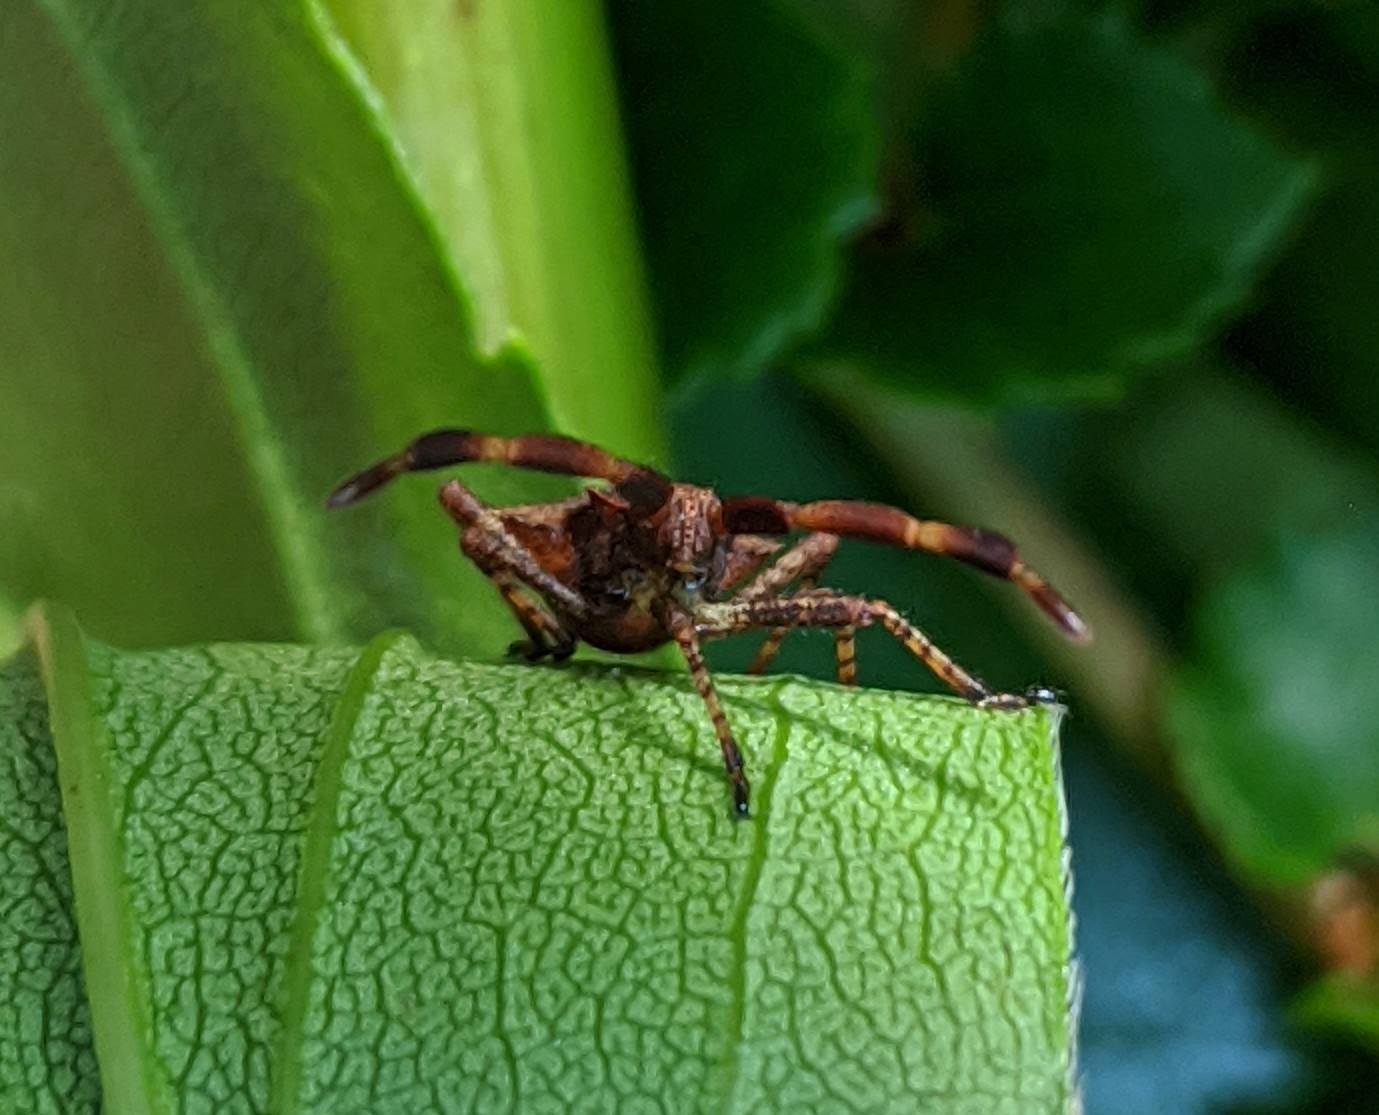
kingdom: Animalia
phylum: Arthropoda
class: Insecta
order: Hemiptera
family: Coreidae
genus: Coreus
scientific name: Coreus marginatus
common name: Dock bug
